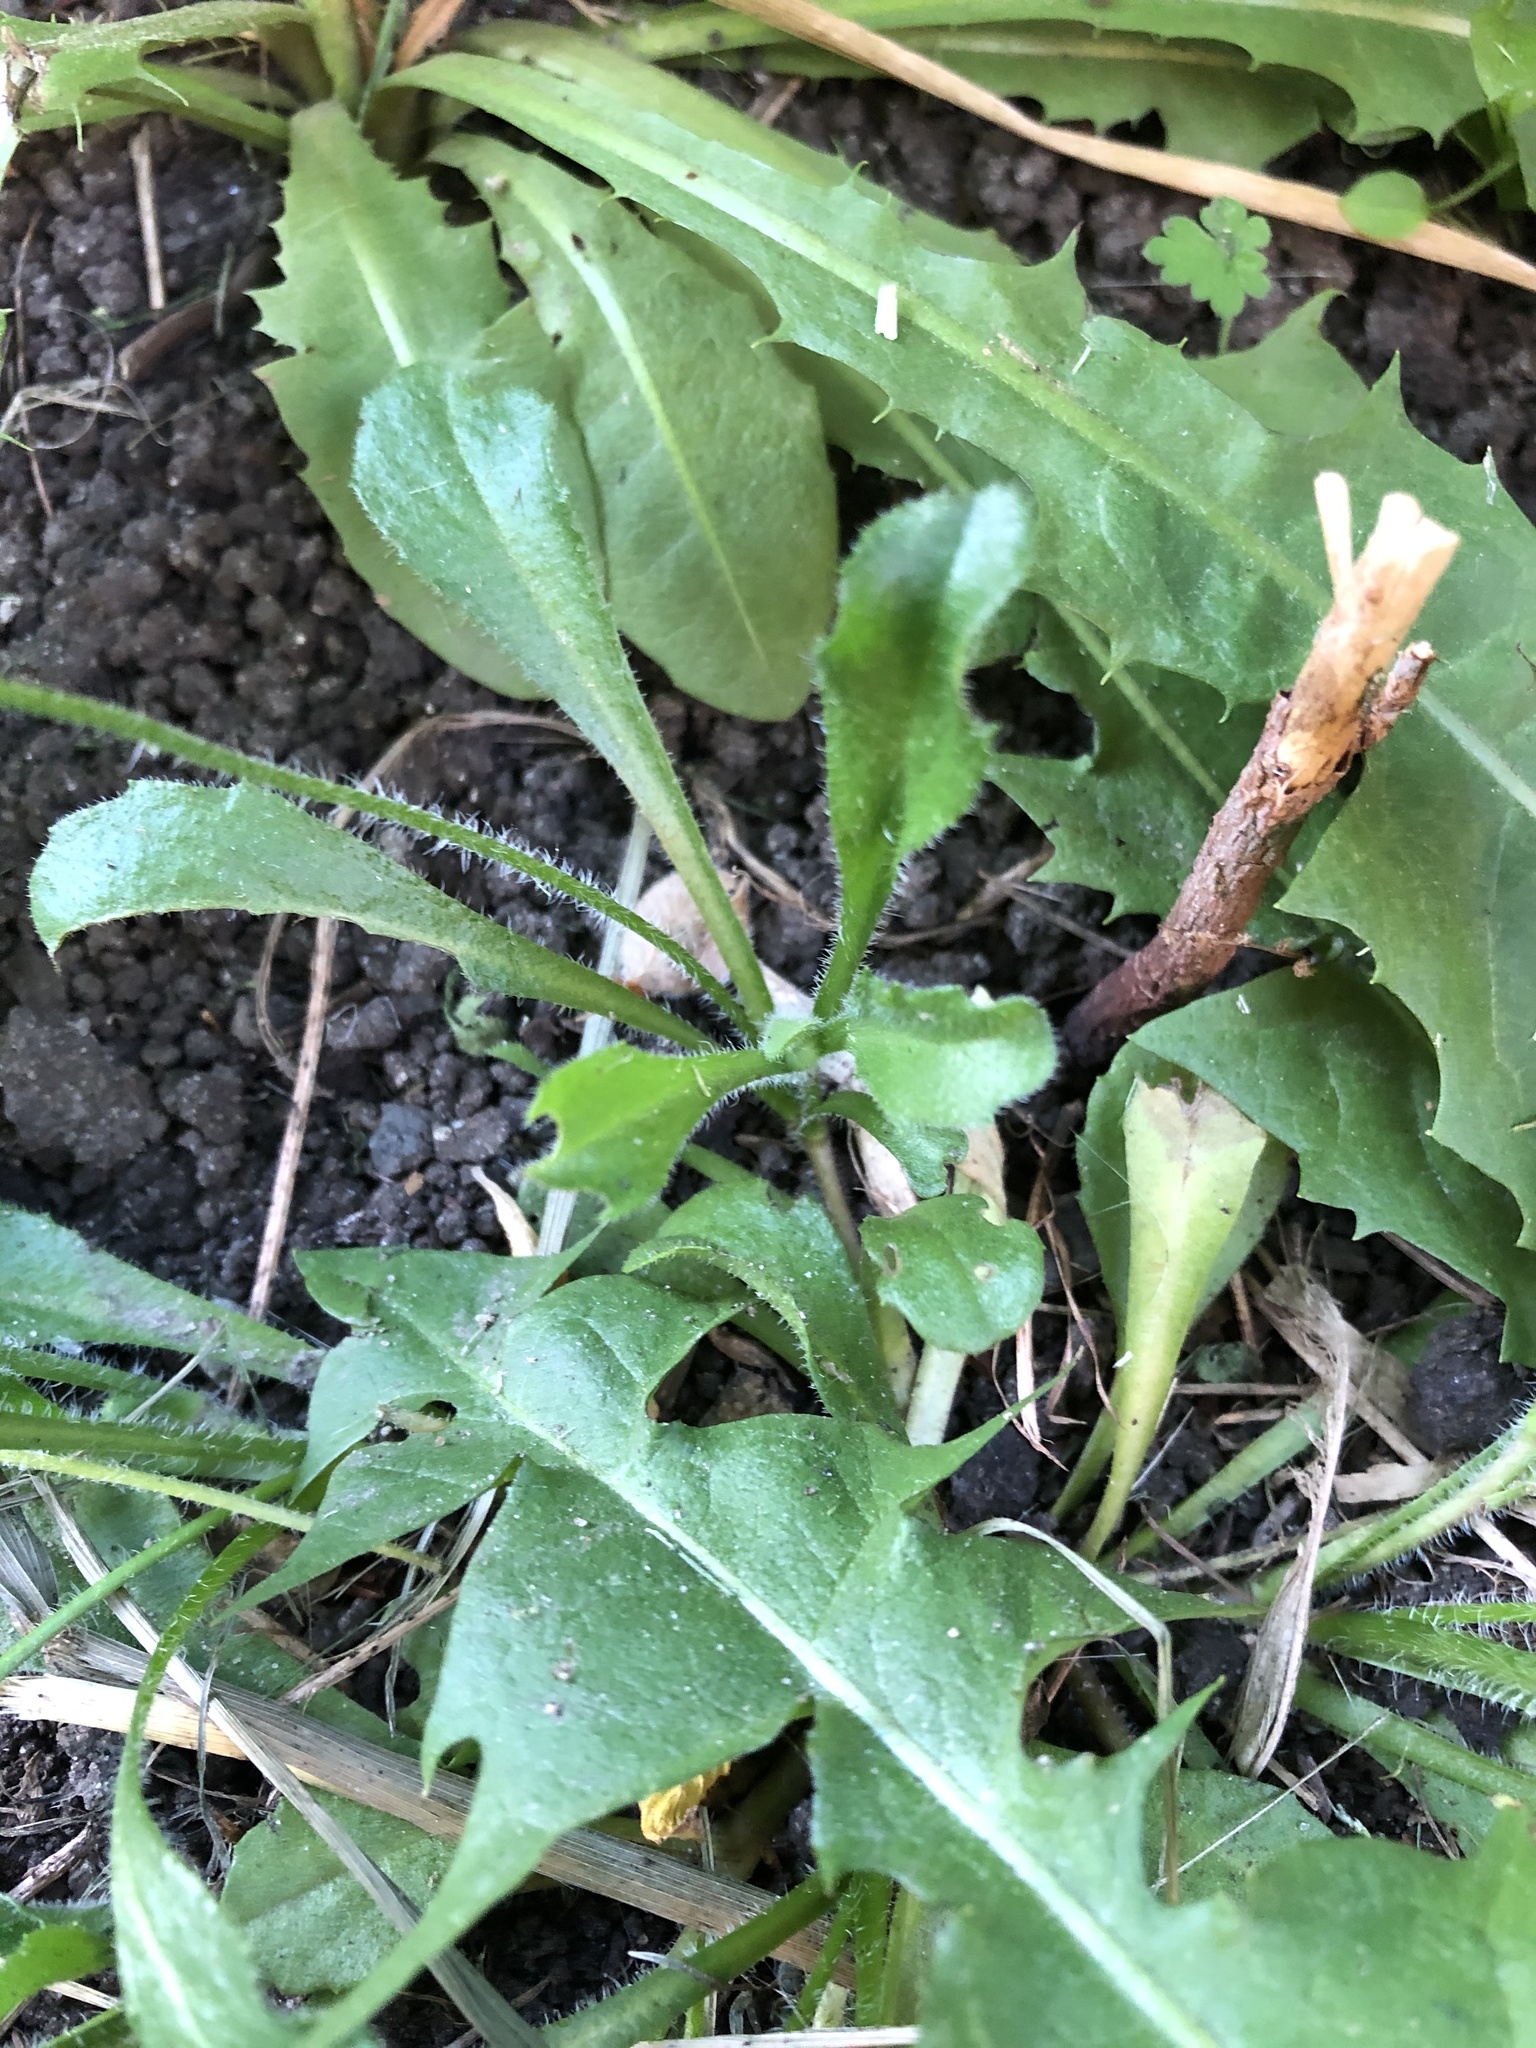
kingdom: Plantae
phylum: Tracheophyta
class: Magnoliopsida
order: Asterales
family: Asteraceae
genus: Bellis
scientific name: Bellis perennis
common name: Lawndaisy
